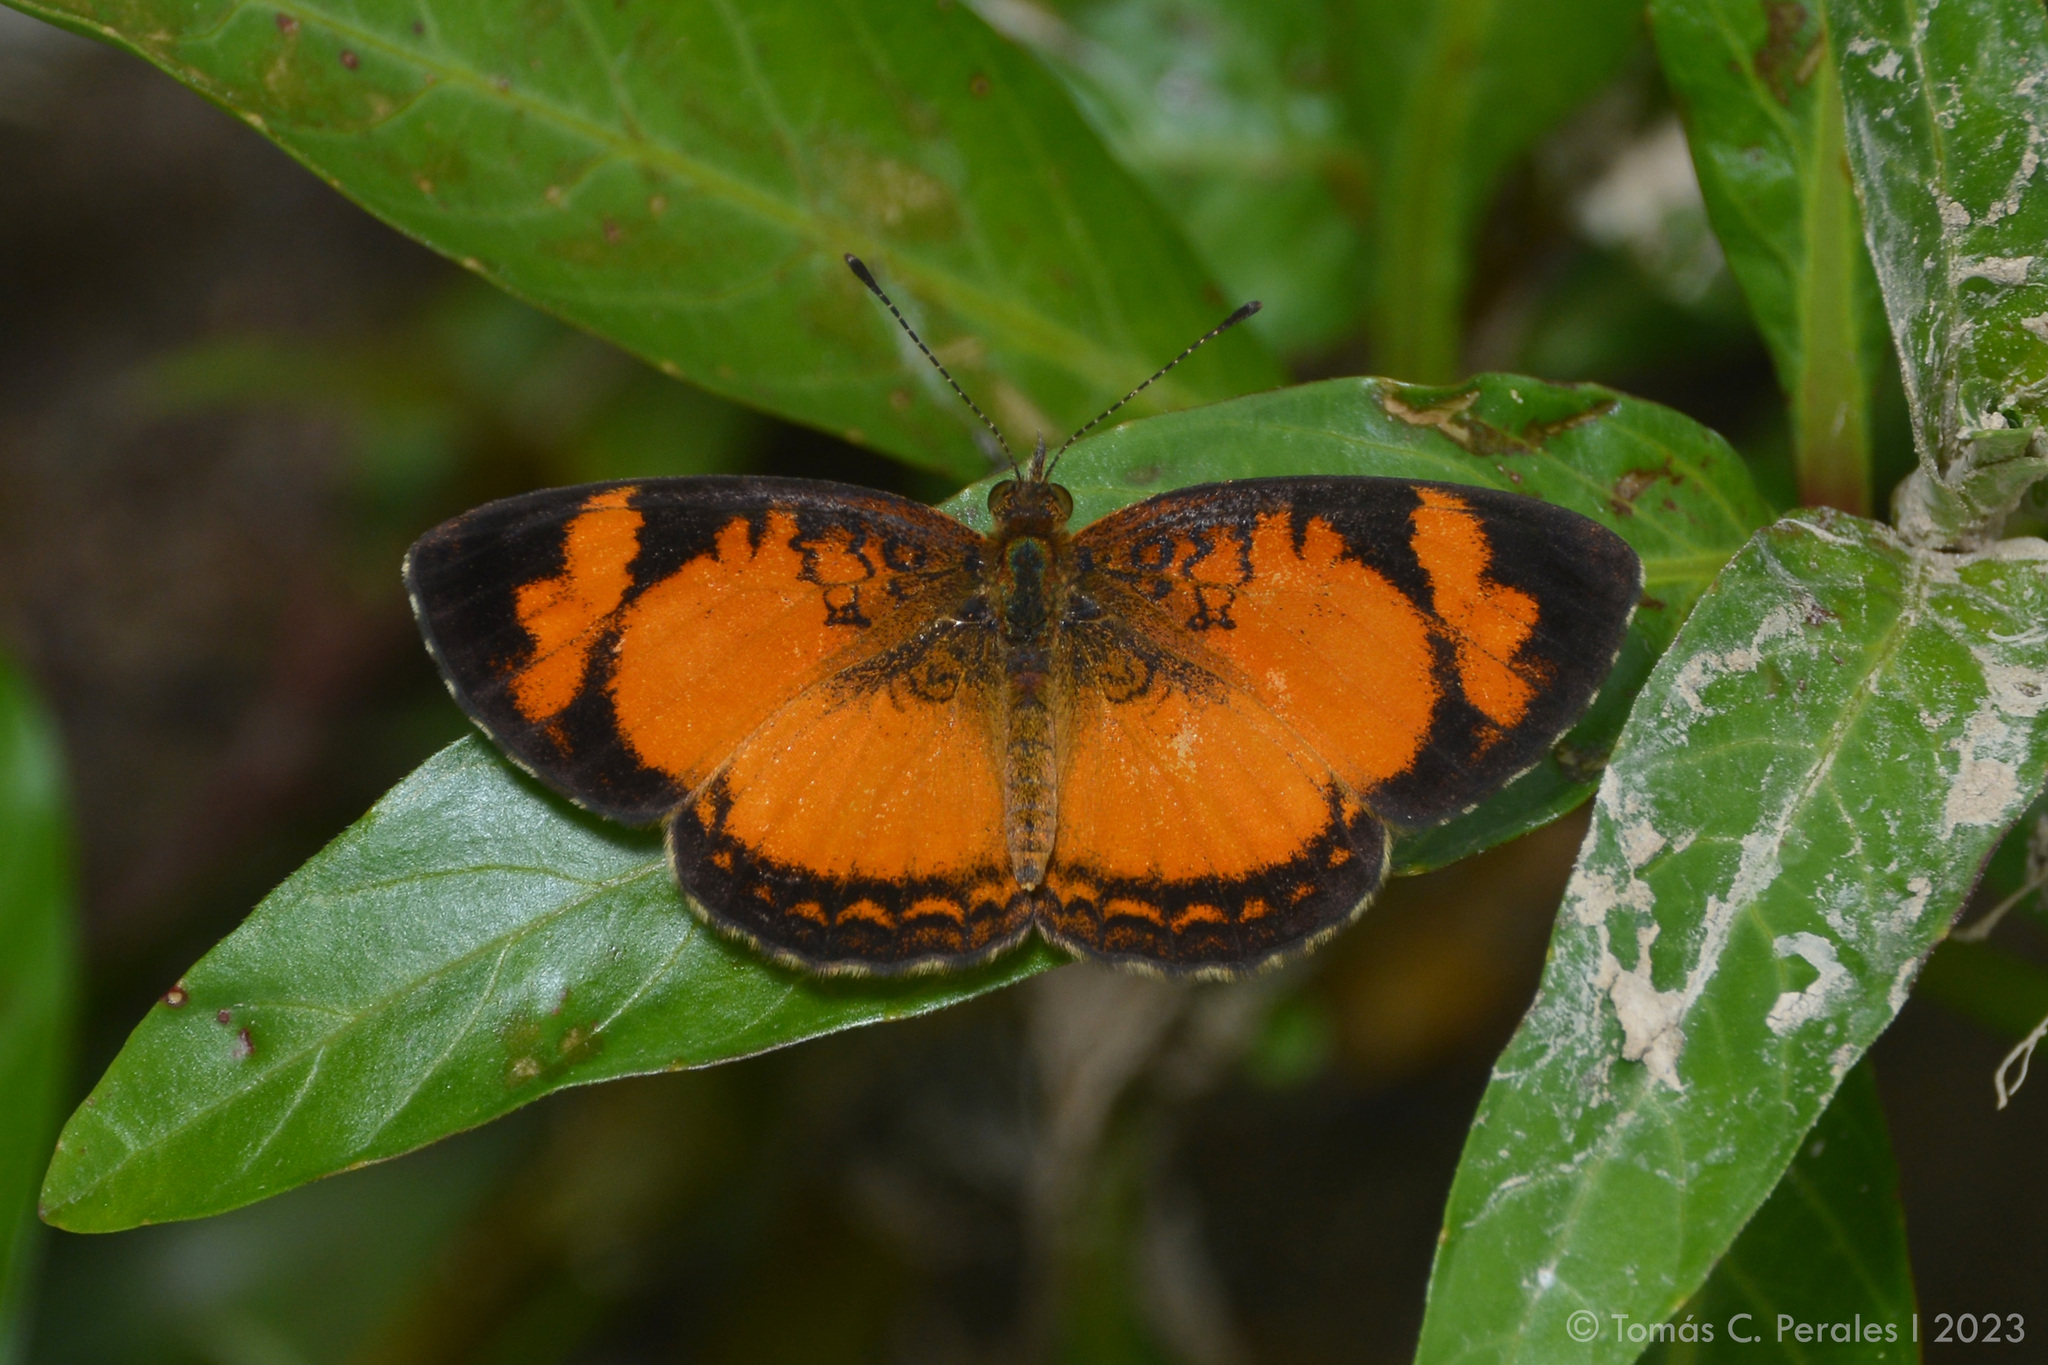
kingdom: Animalia
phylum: Arthropoda
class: Insecta
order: Lepidoptera
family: Nymphalidae
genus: Ortilia
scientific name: Ortilia gentina
